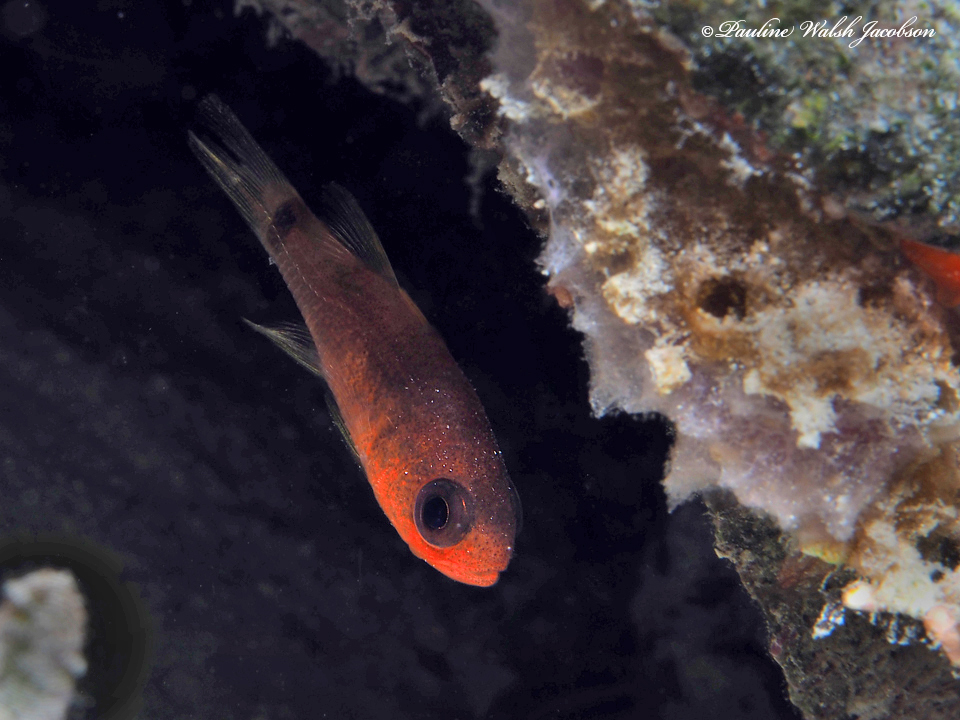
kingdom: Animalia
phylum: Chordata
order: Perciformes
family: Apogonidae
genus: Apogon
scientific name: Apogon quadrisquamatus
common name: Sawcheek cardinalfish
